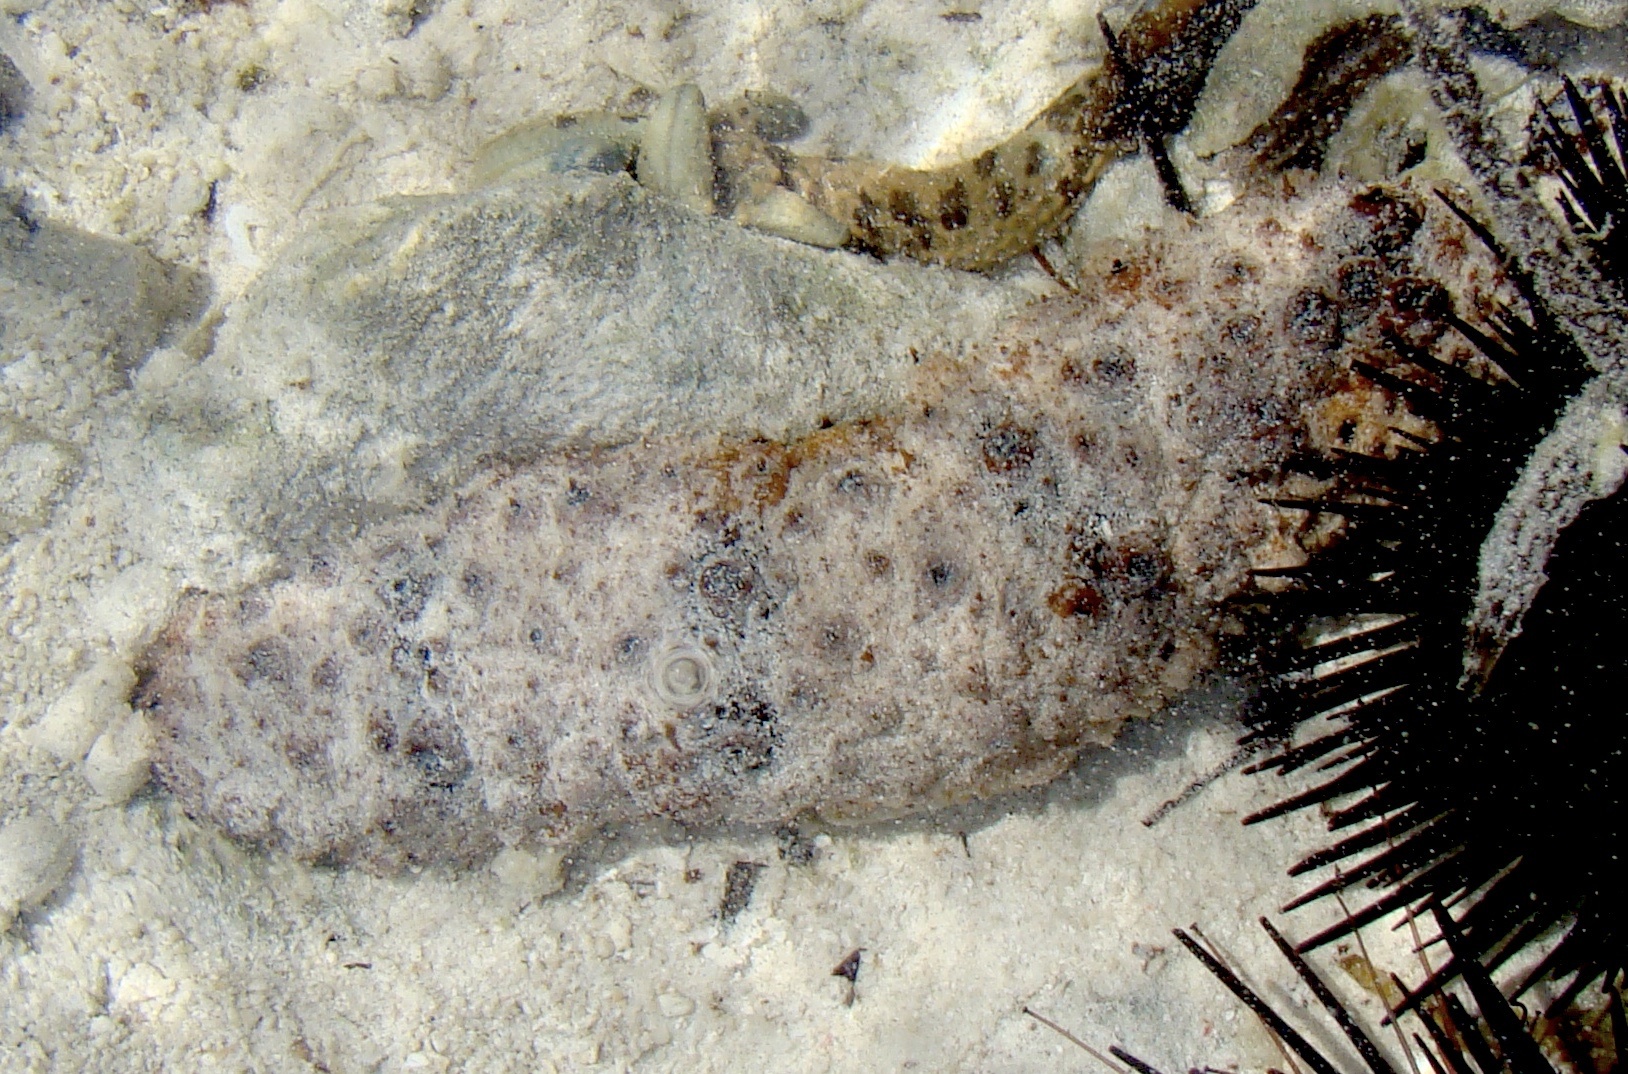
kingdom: Animalia
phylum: Echinodermata
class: Holothuroidea
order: Holothuriida
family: Holothuriidae
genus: Holothuria
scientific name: Holothuria pervicax
